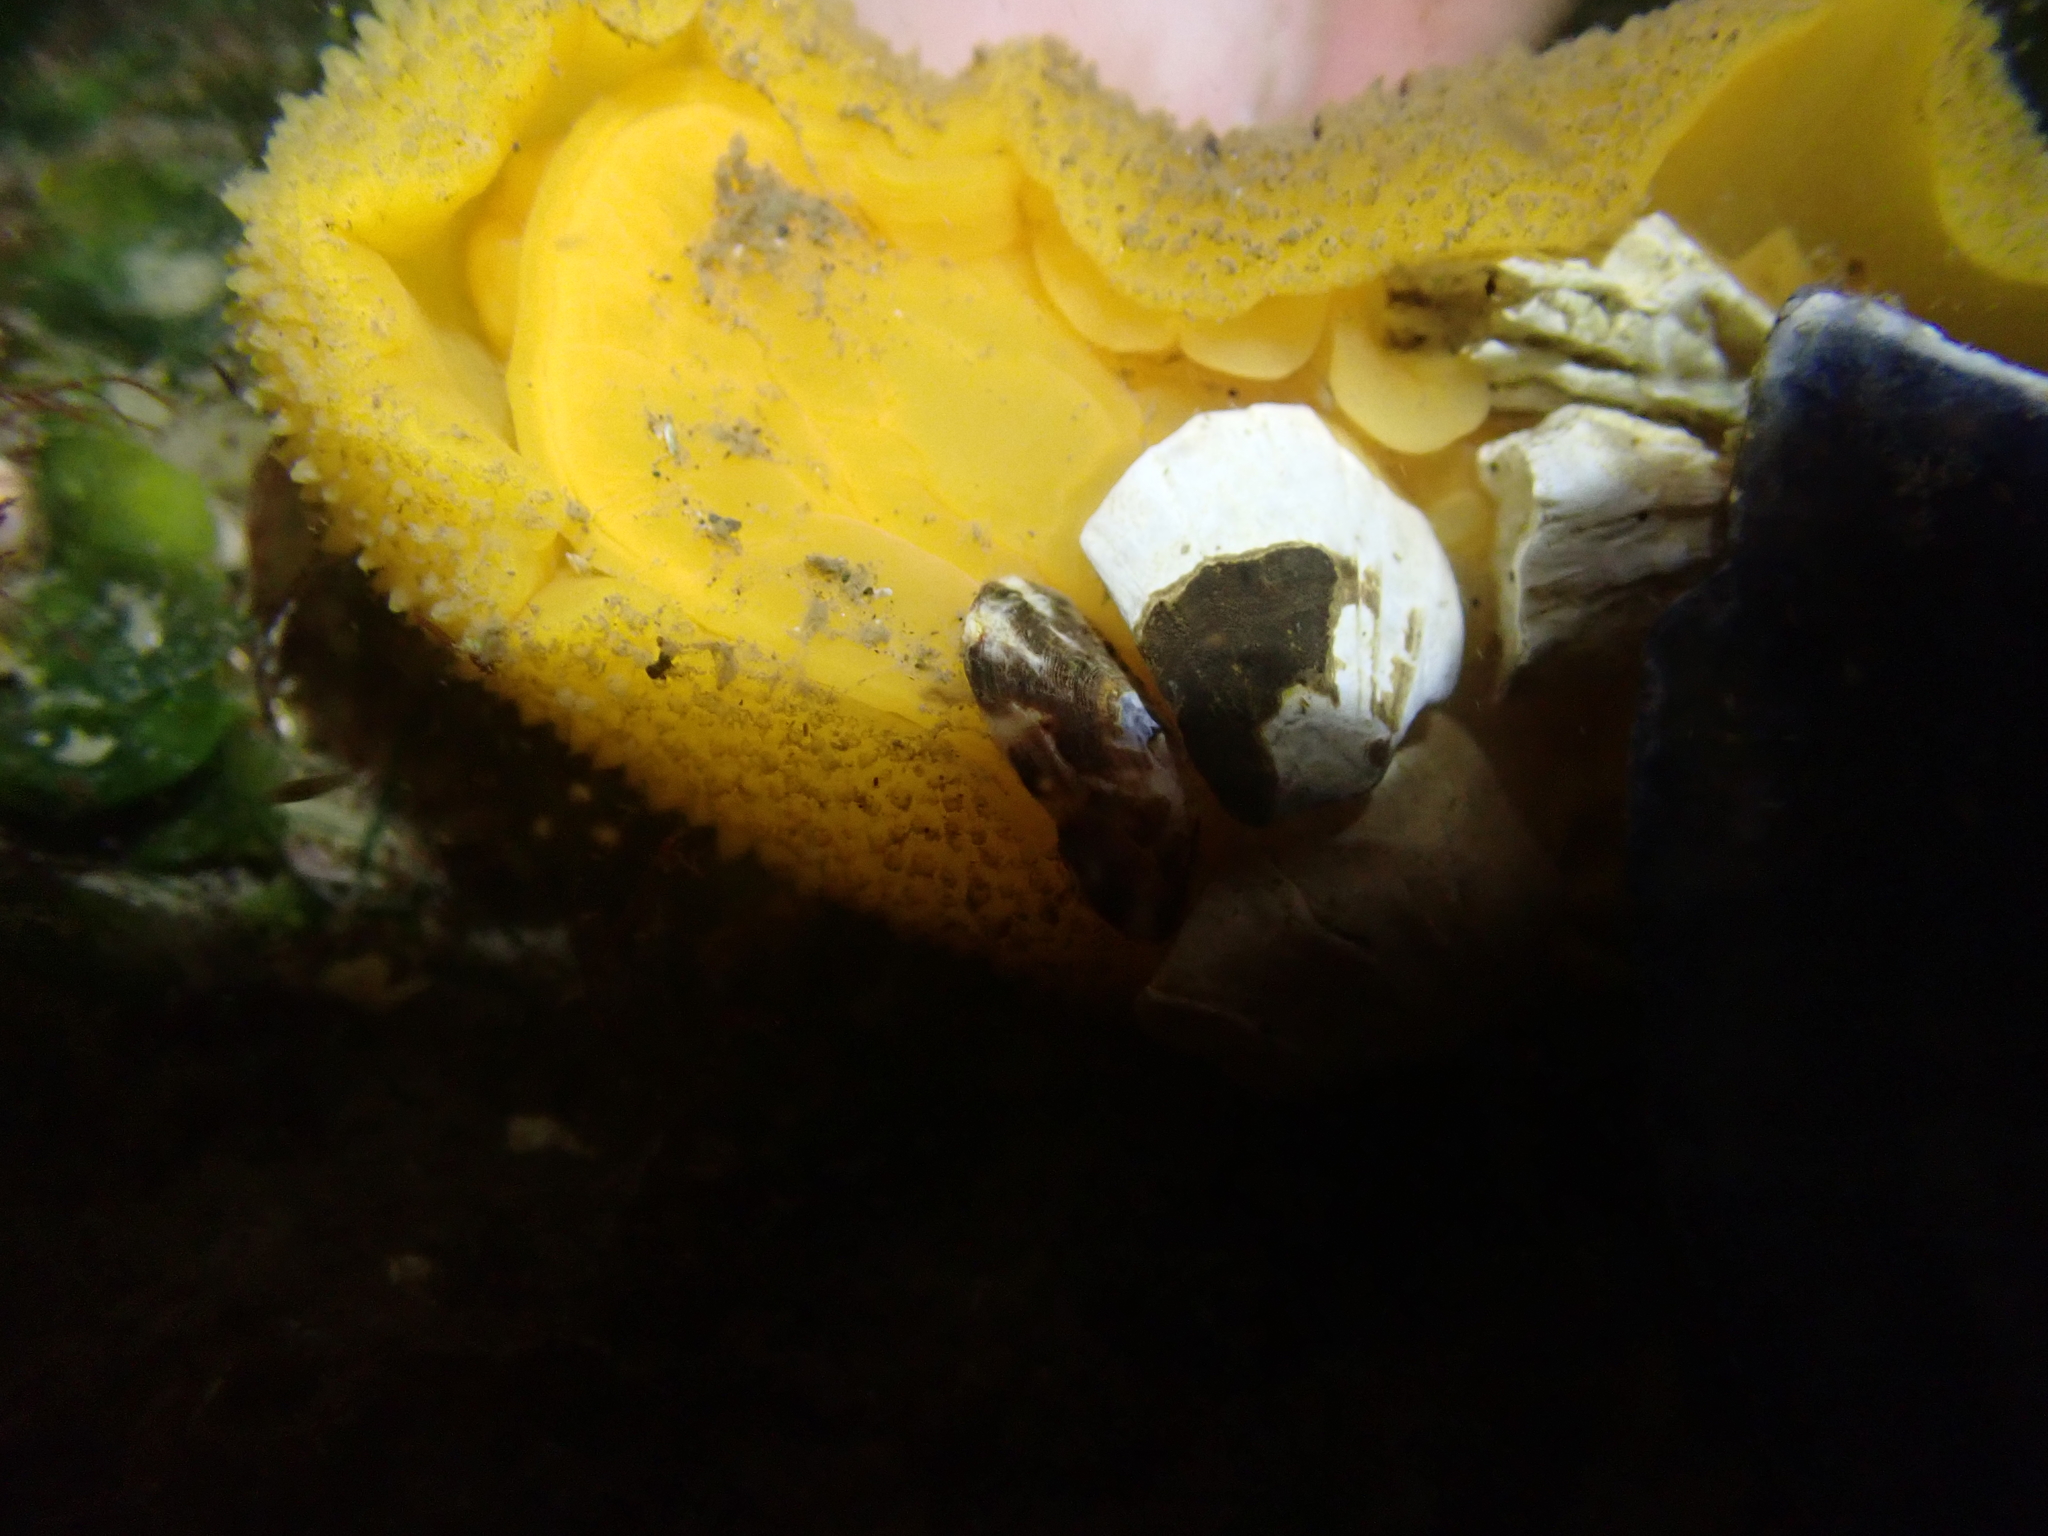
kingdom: Animalia
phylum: Mollusca
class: Gastropoda
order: Nudibranchia
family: Dorididae
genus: Doris
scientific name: Doris montereyensis
